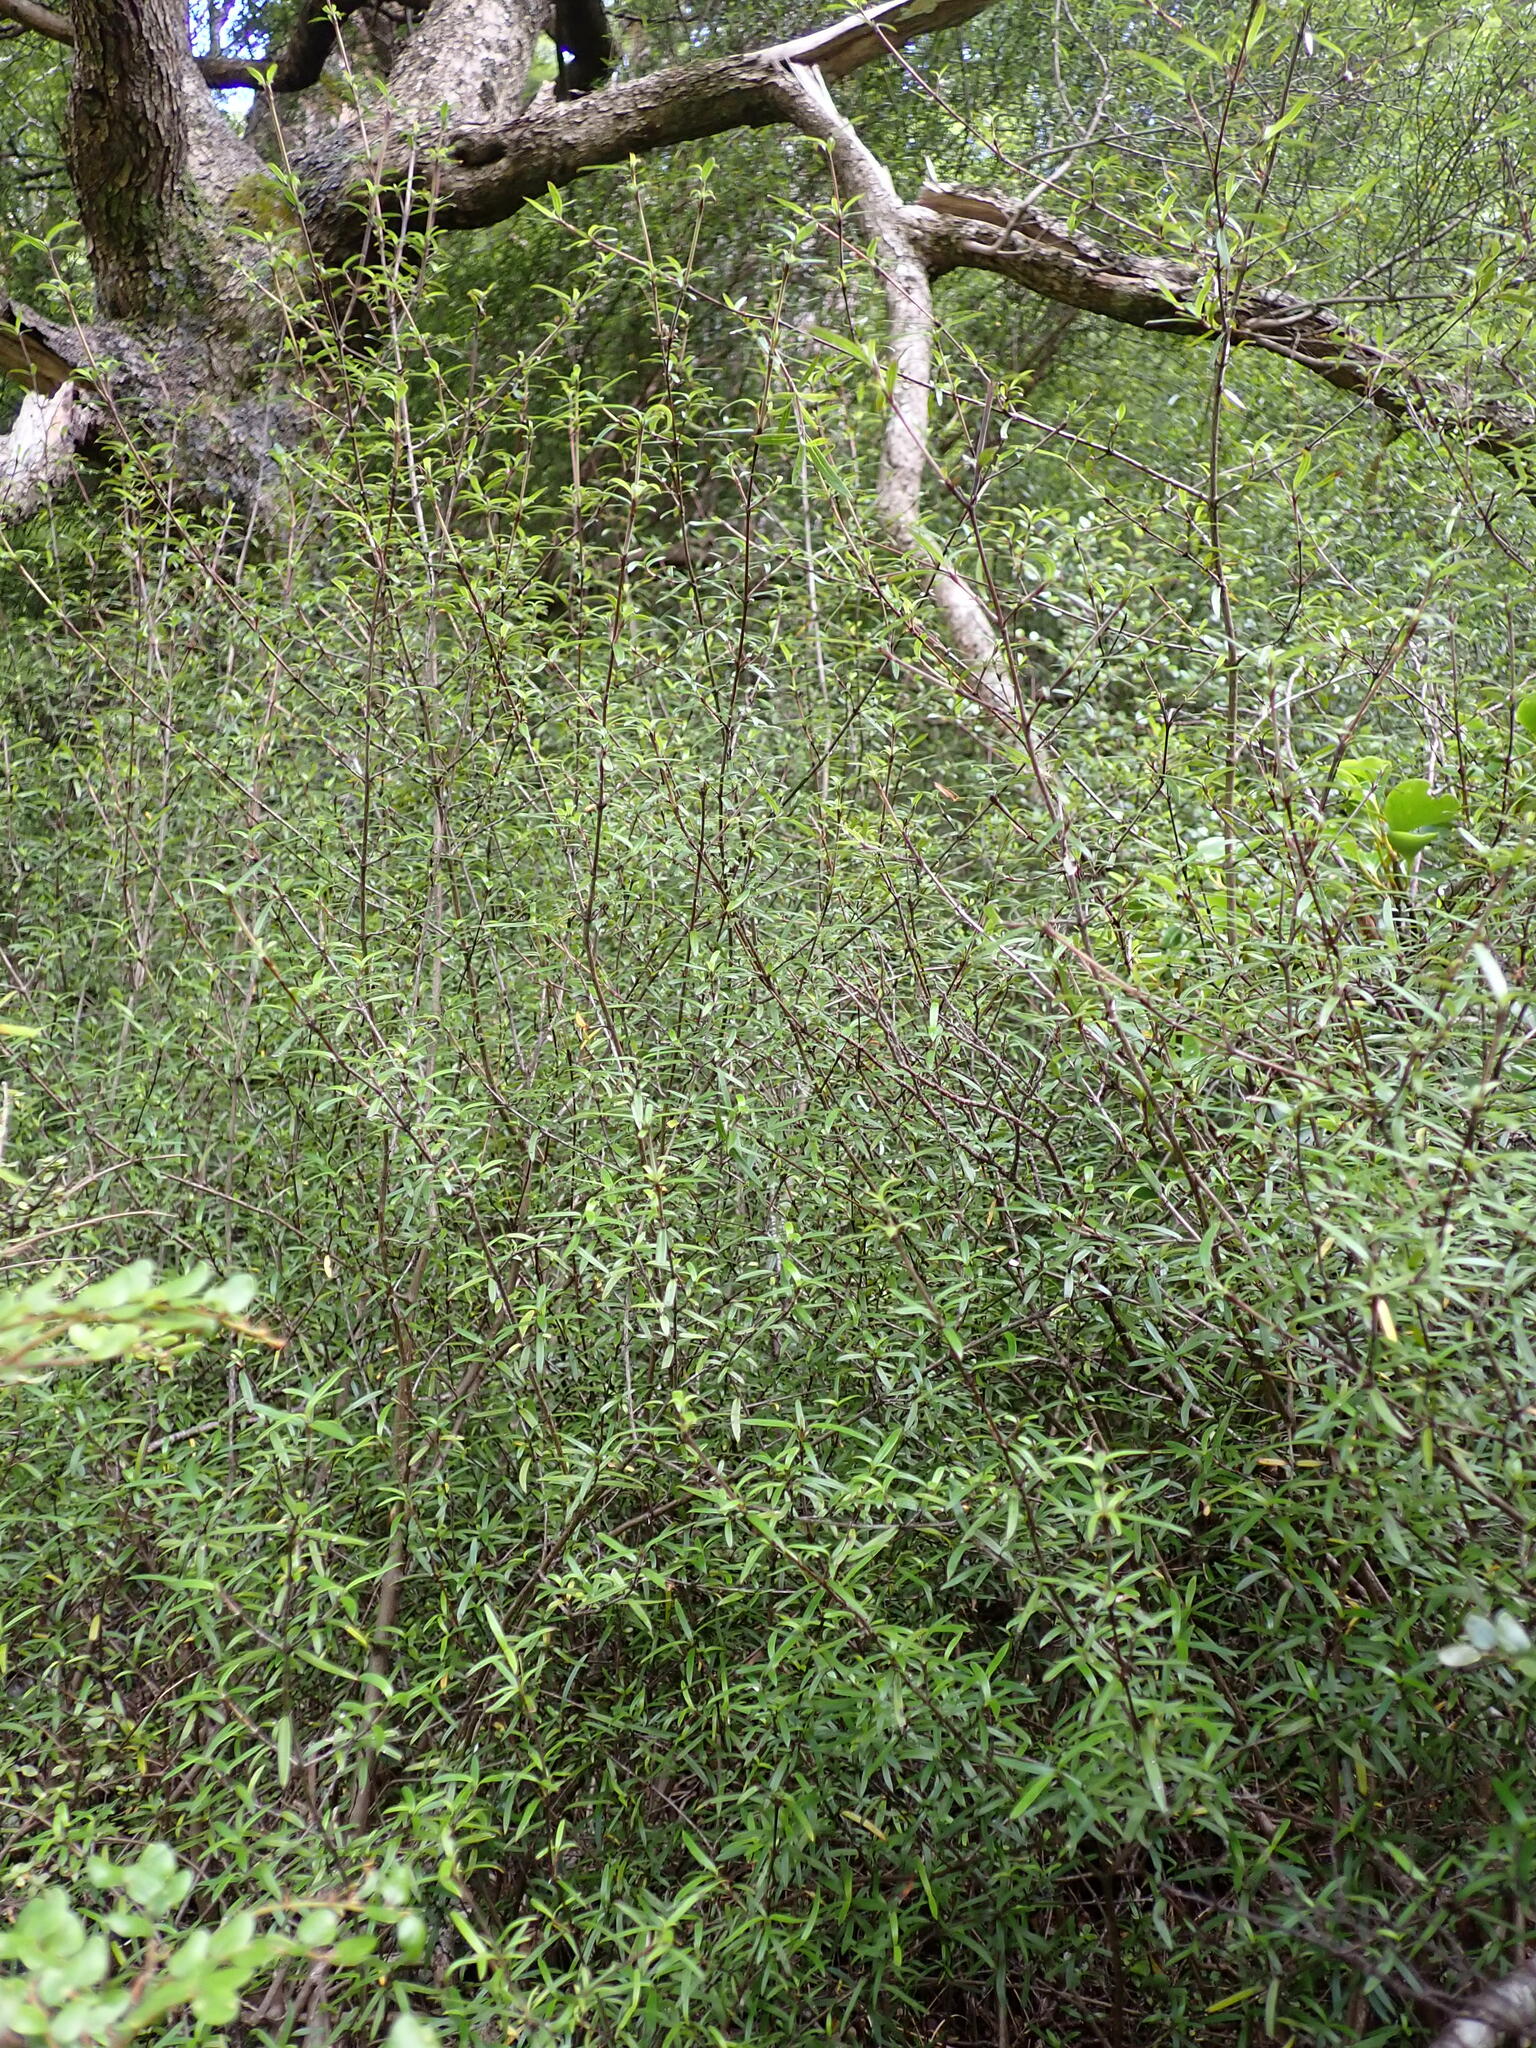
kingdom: Plantae
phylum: Tracheophyta
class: Magnoliopsida
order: Gentianales
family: Rubiaceae
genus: Coprosma
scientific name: Coprosma linariifolia
